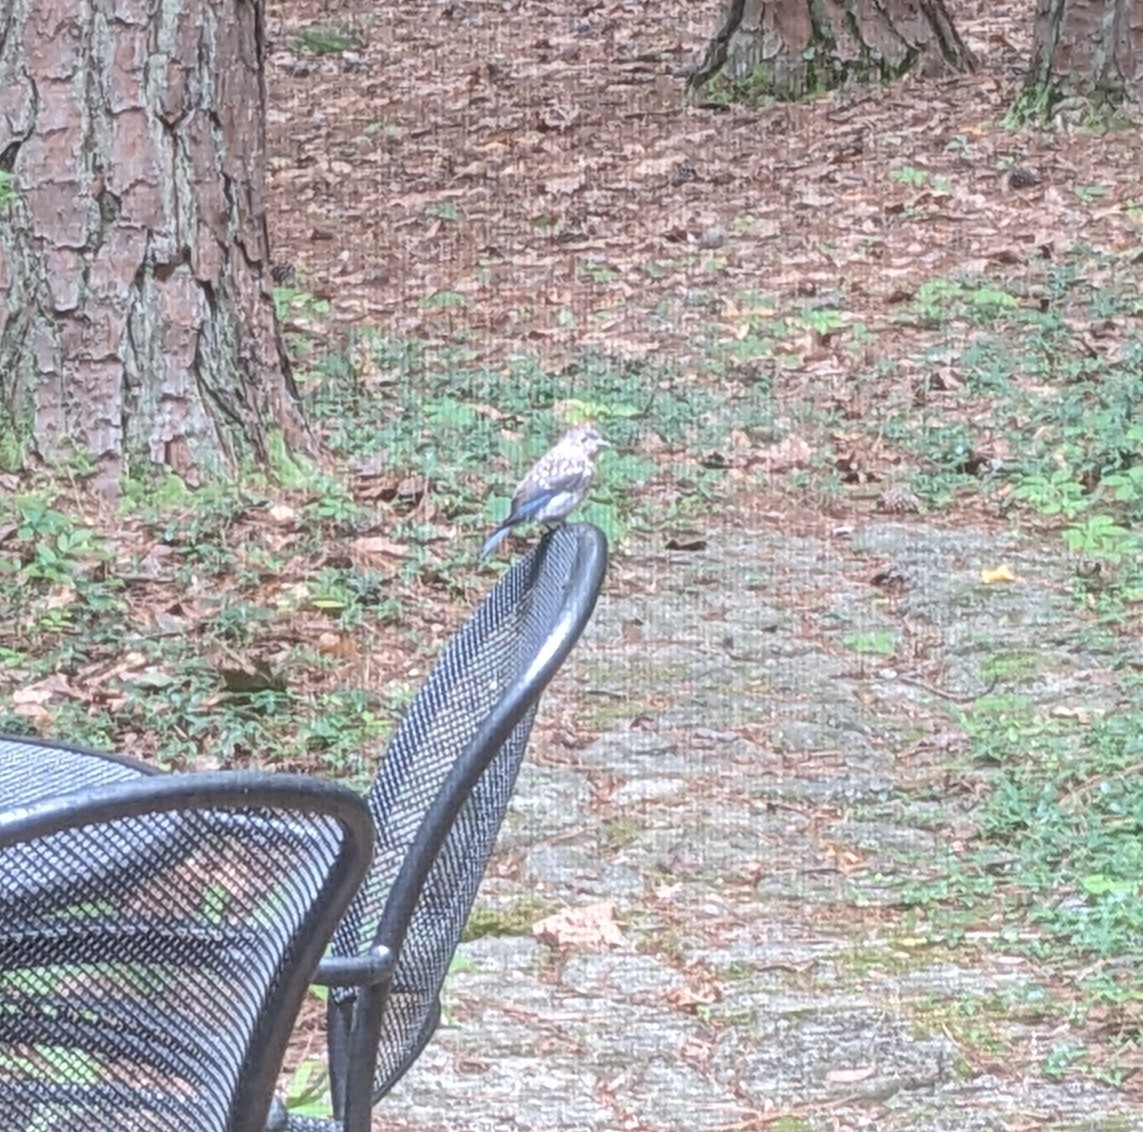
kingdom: Animalia
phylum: Chordata
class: Aves
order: Passeriformes
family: Turdidae
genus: Sialia
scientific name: Sialia sialis
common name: Eastern bluebird
